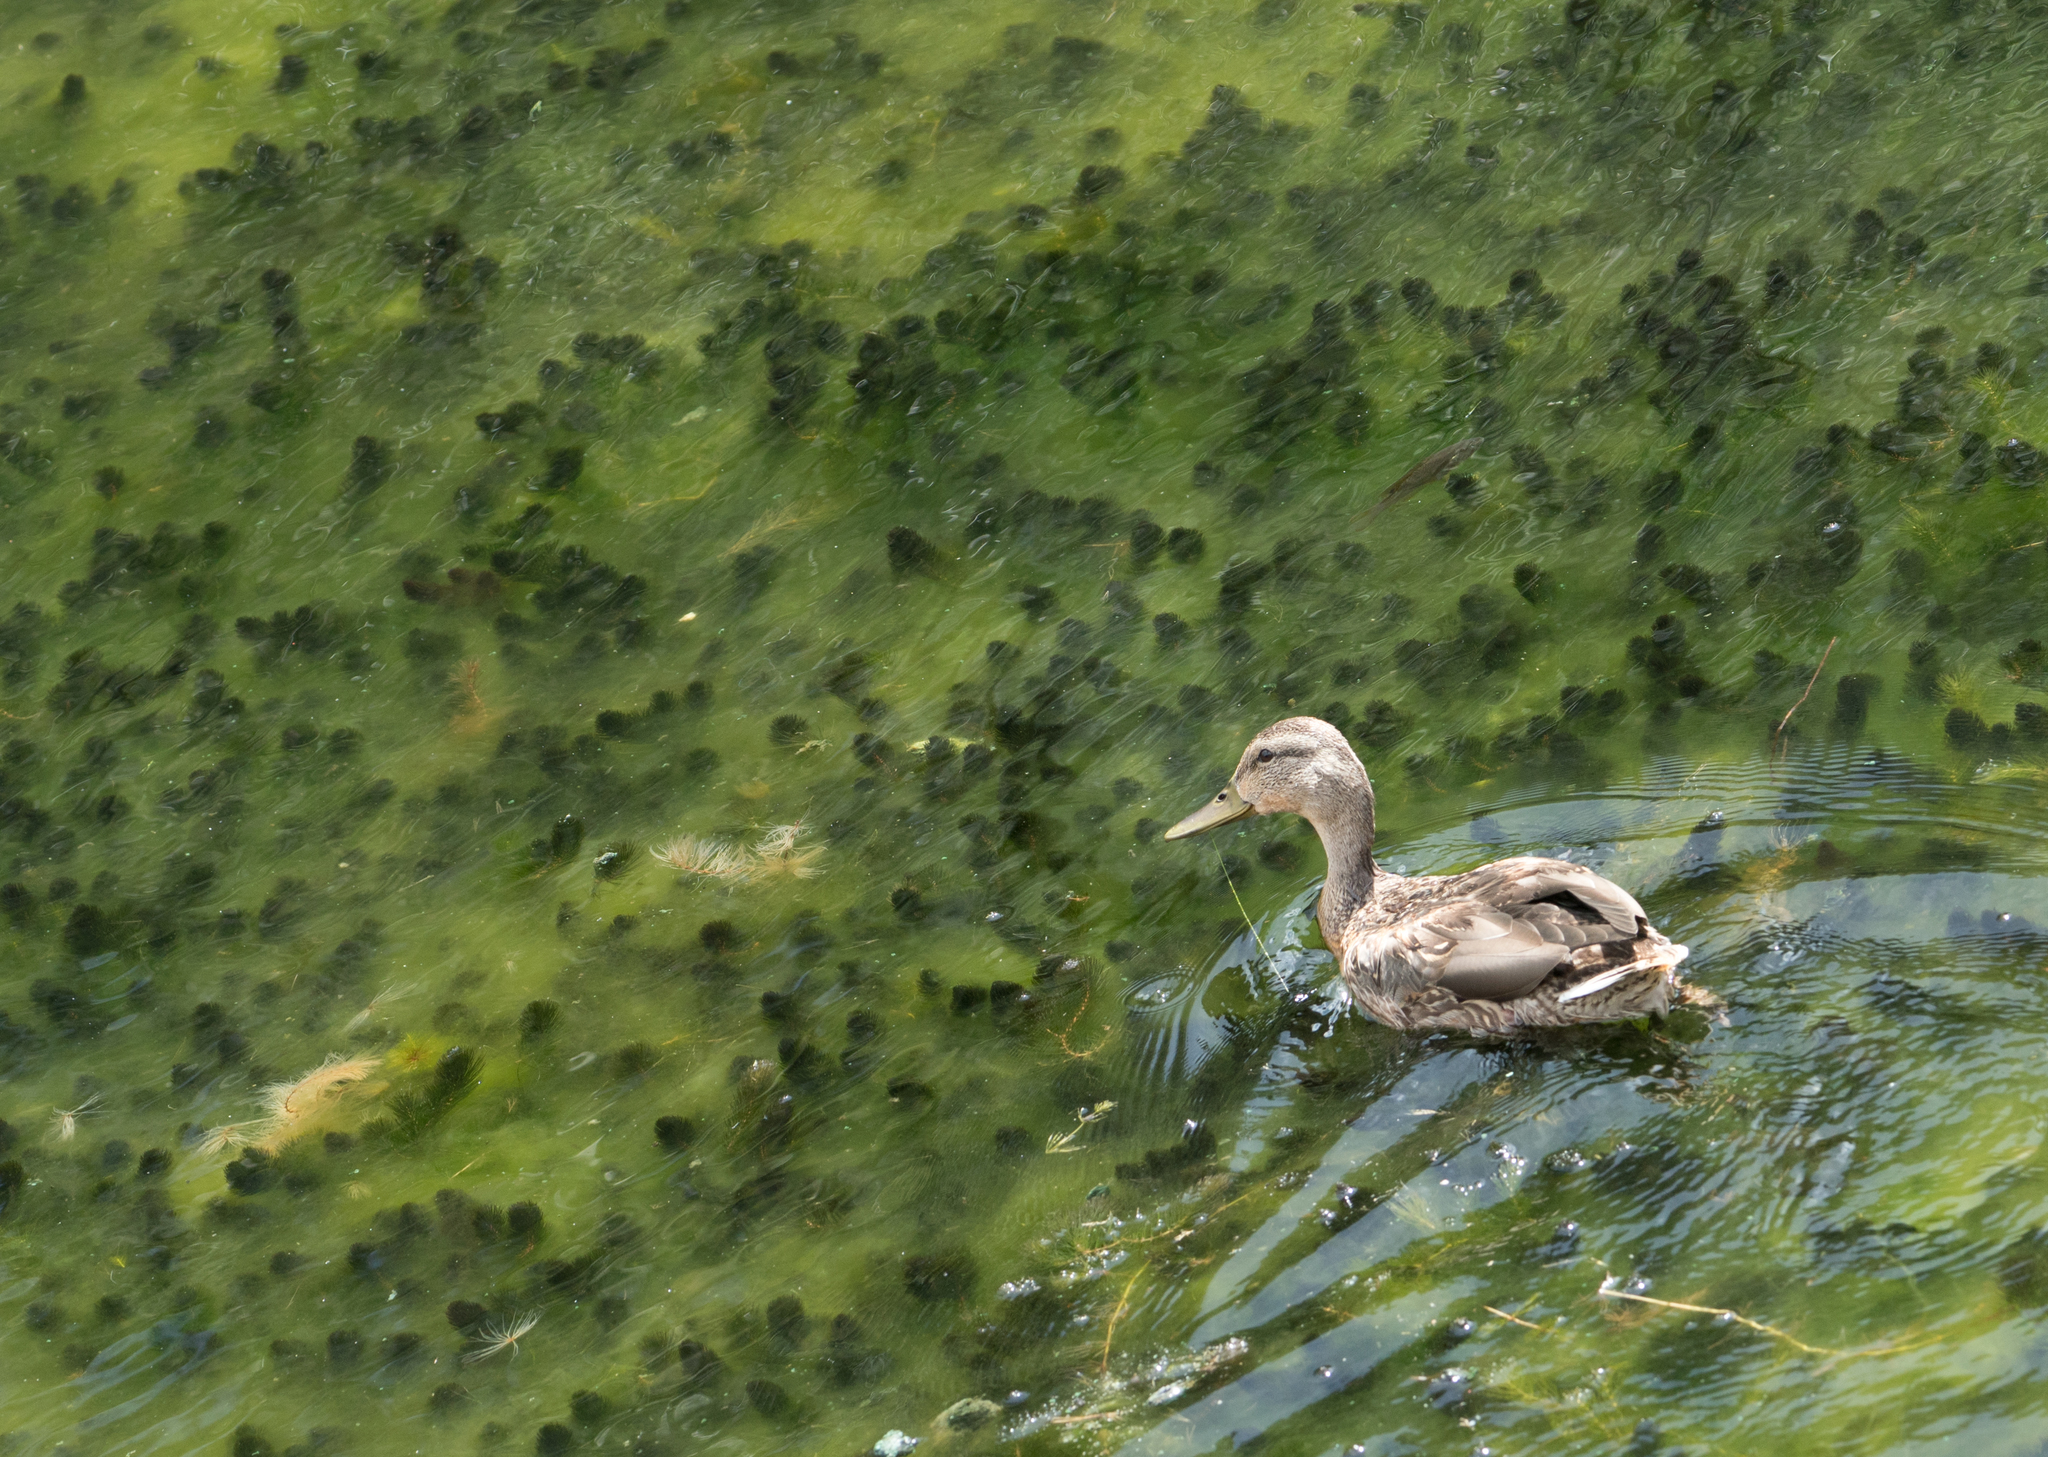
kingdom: Animalia
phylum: Chordata
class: Aves
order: Anseriformes
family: Anatidae
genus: Anas
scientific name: Anas platyrhynchos
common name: Mallard
